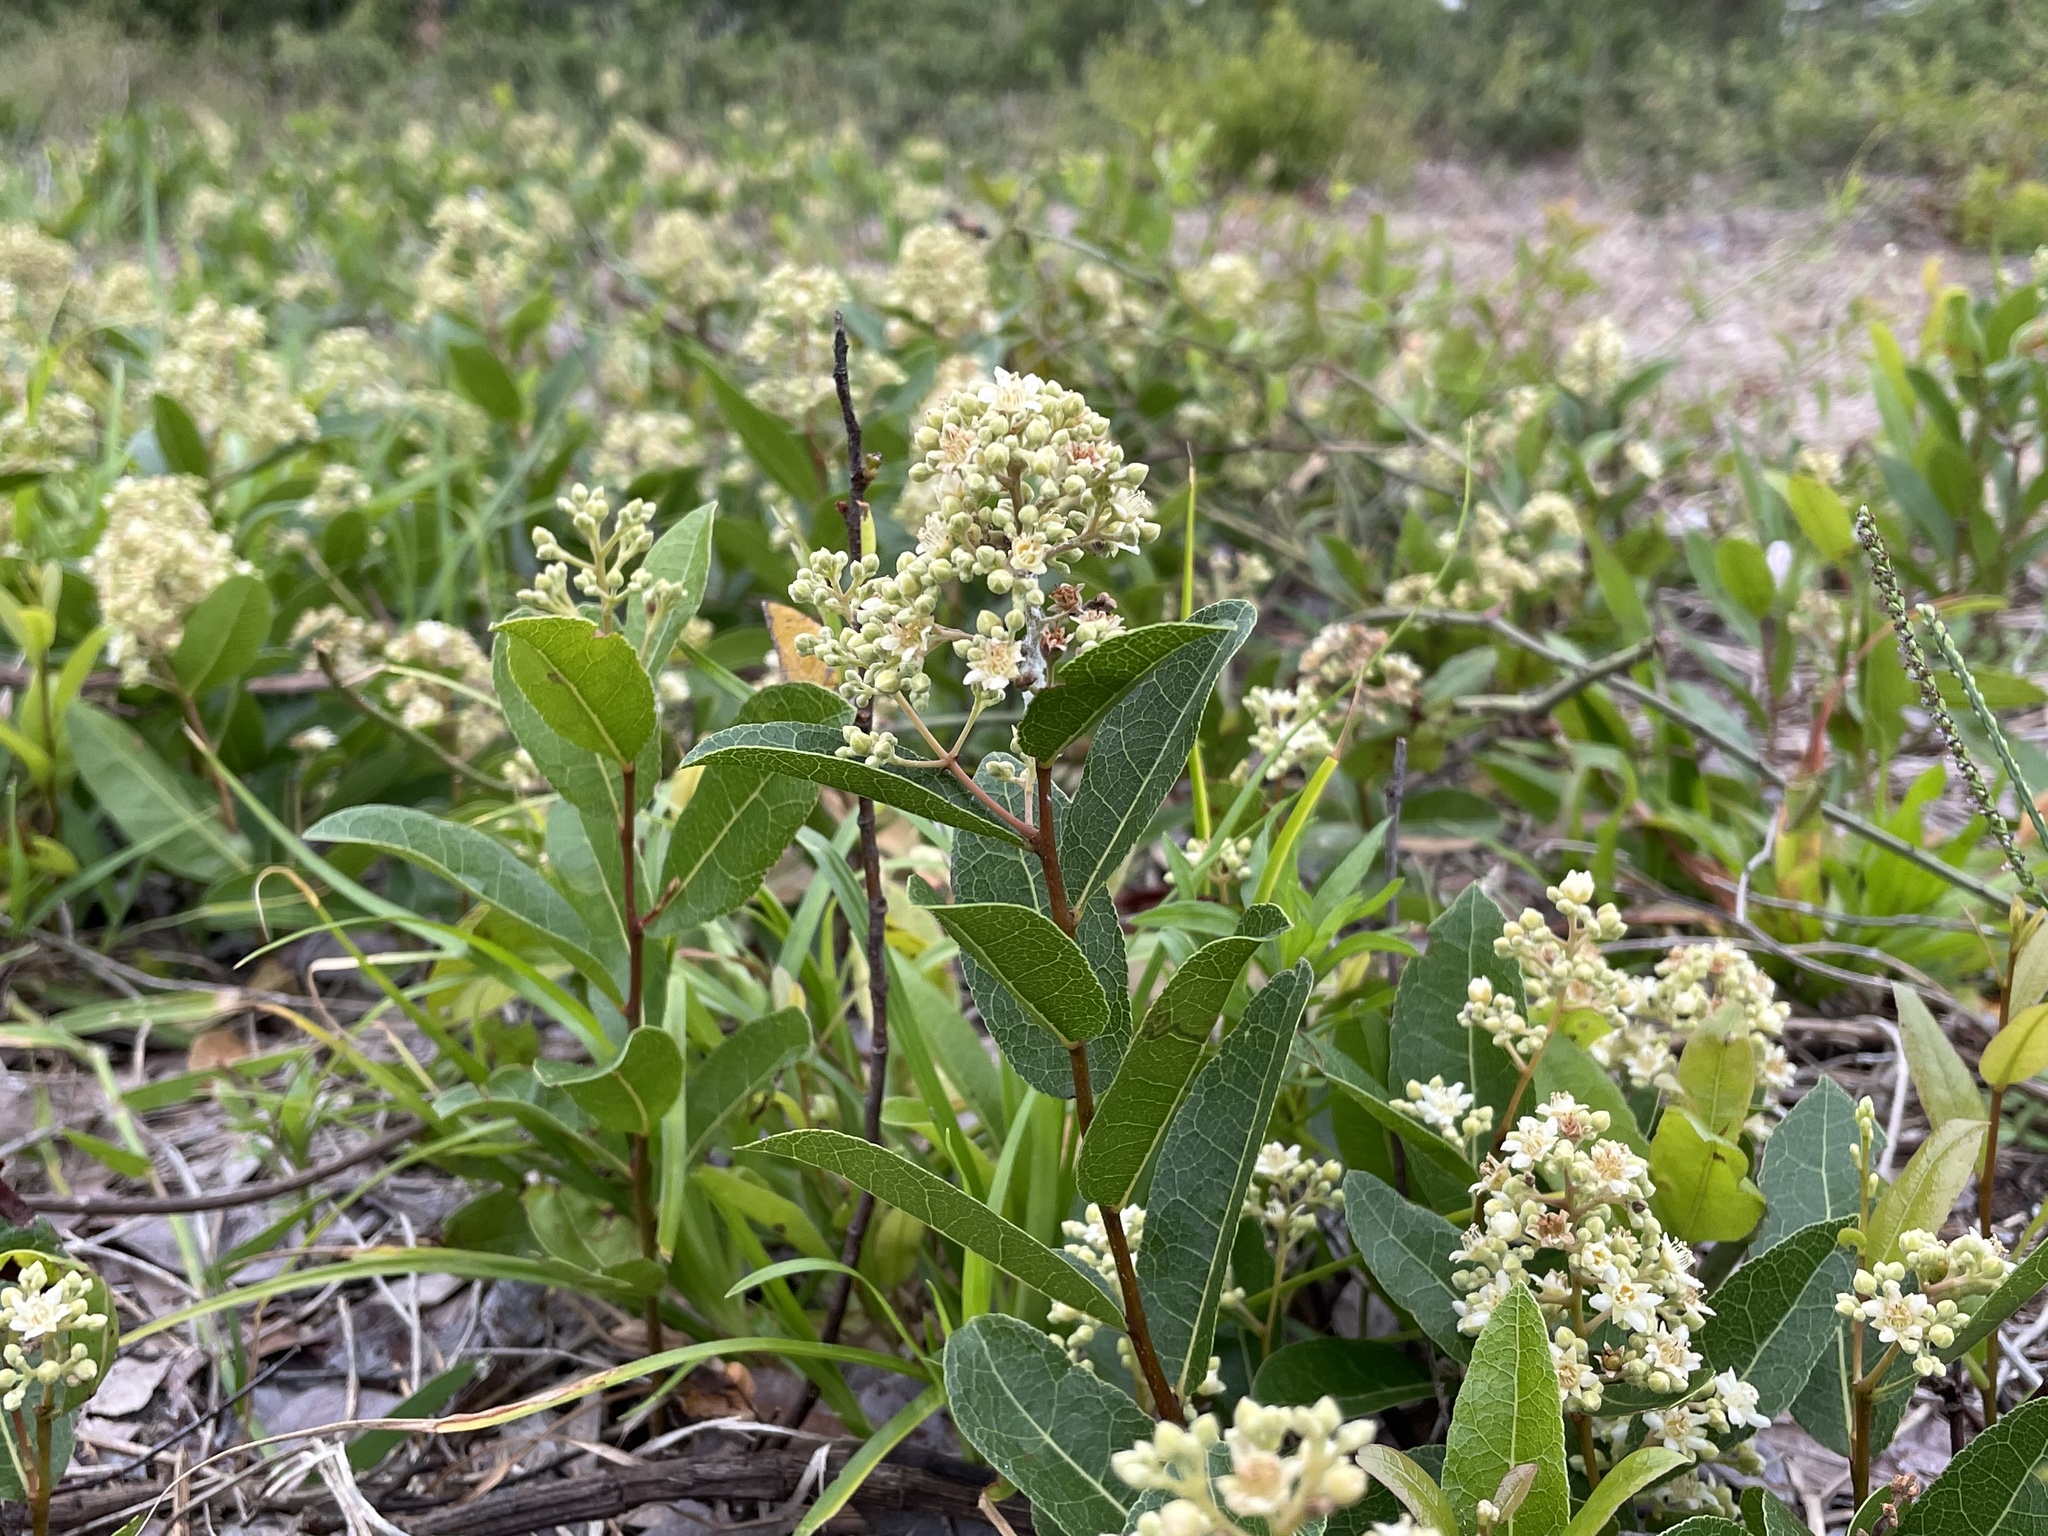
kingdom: Plantae
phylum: Tracheophyta
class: Magnoliopsida
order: Malpighiales
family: Chrysobalanaceae
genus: Geobalanus
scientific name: Geobalanus oblongifolius
